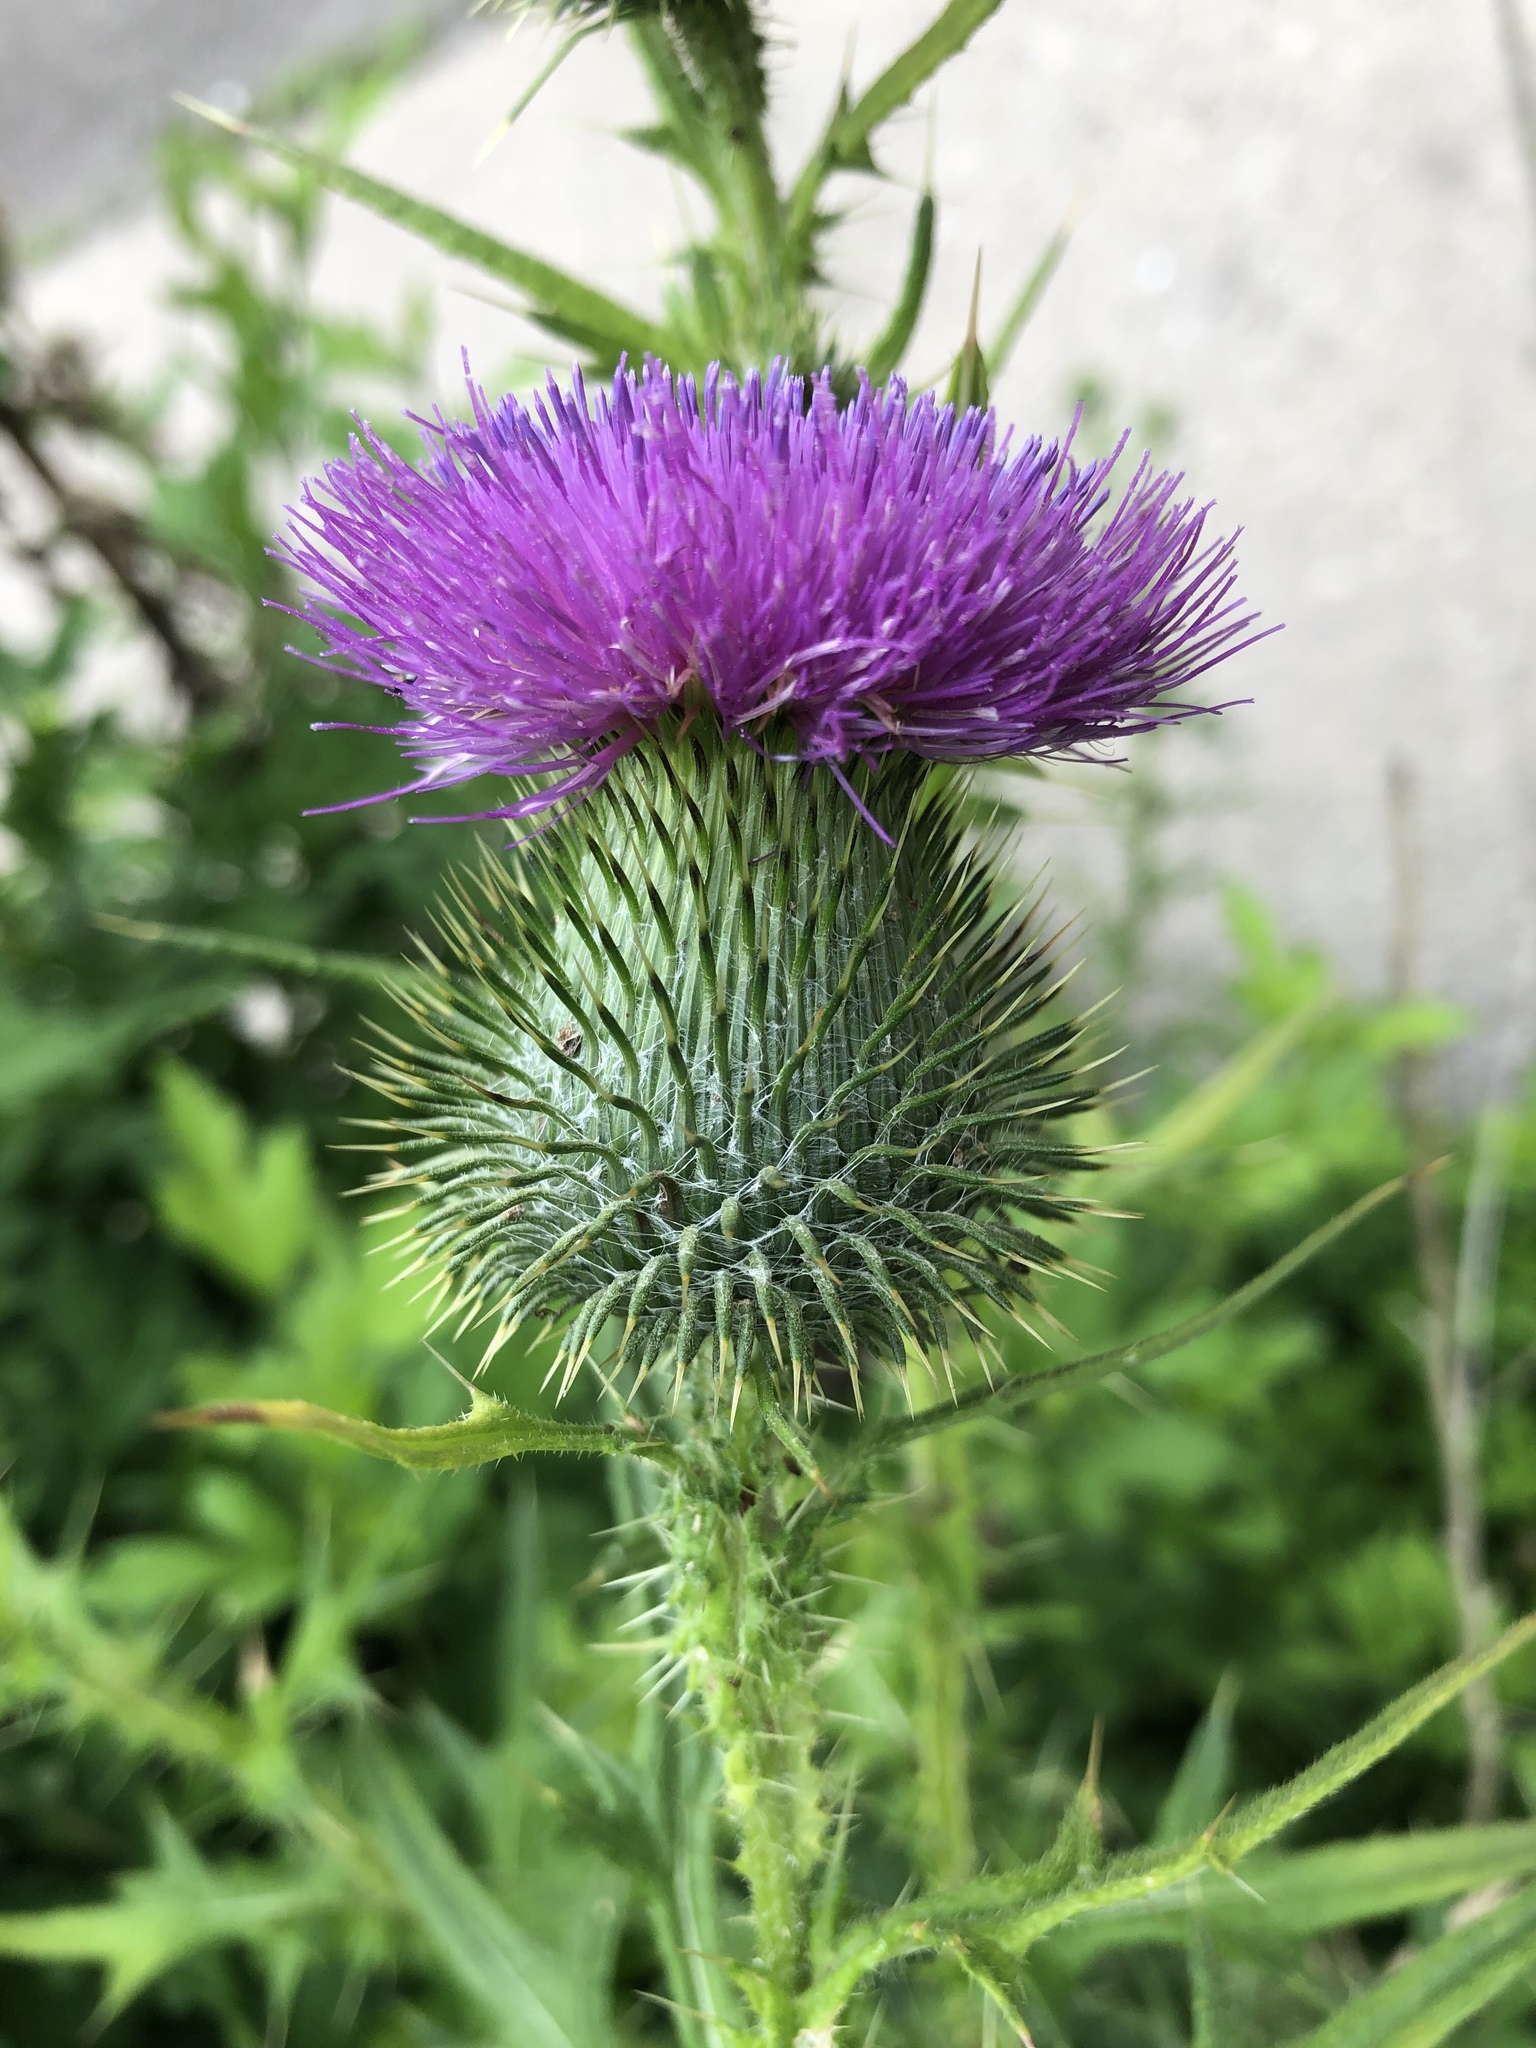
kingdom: Plantae
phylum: Tracheophyta
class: Magnoliopsida
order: Asterales
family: Asteraceae
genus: Cirsium
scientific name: Cirsium vulgare
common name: Bull thistle
